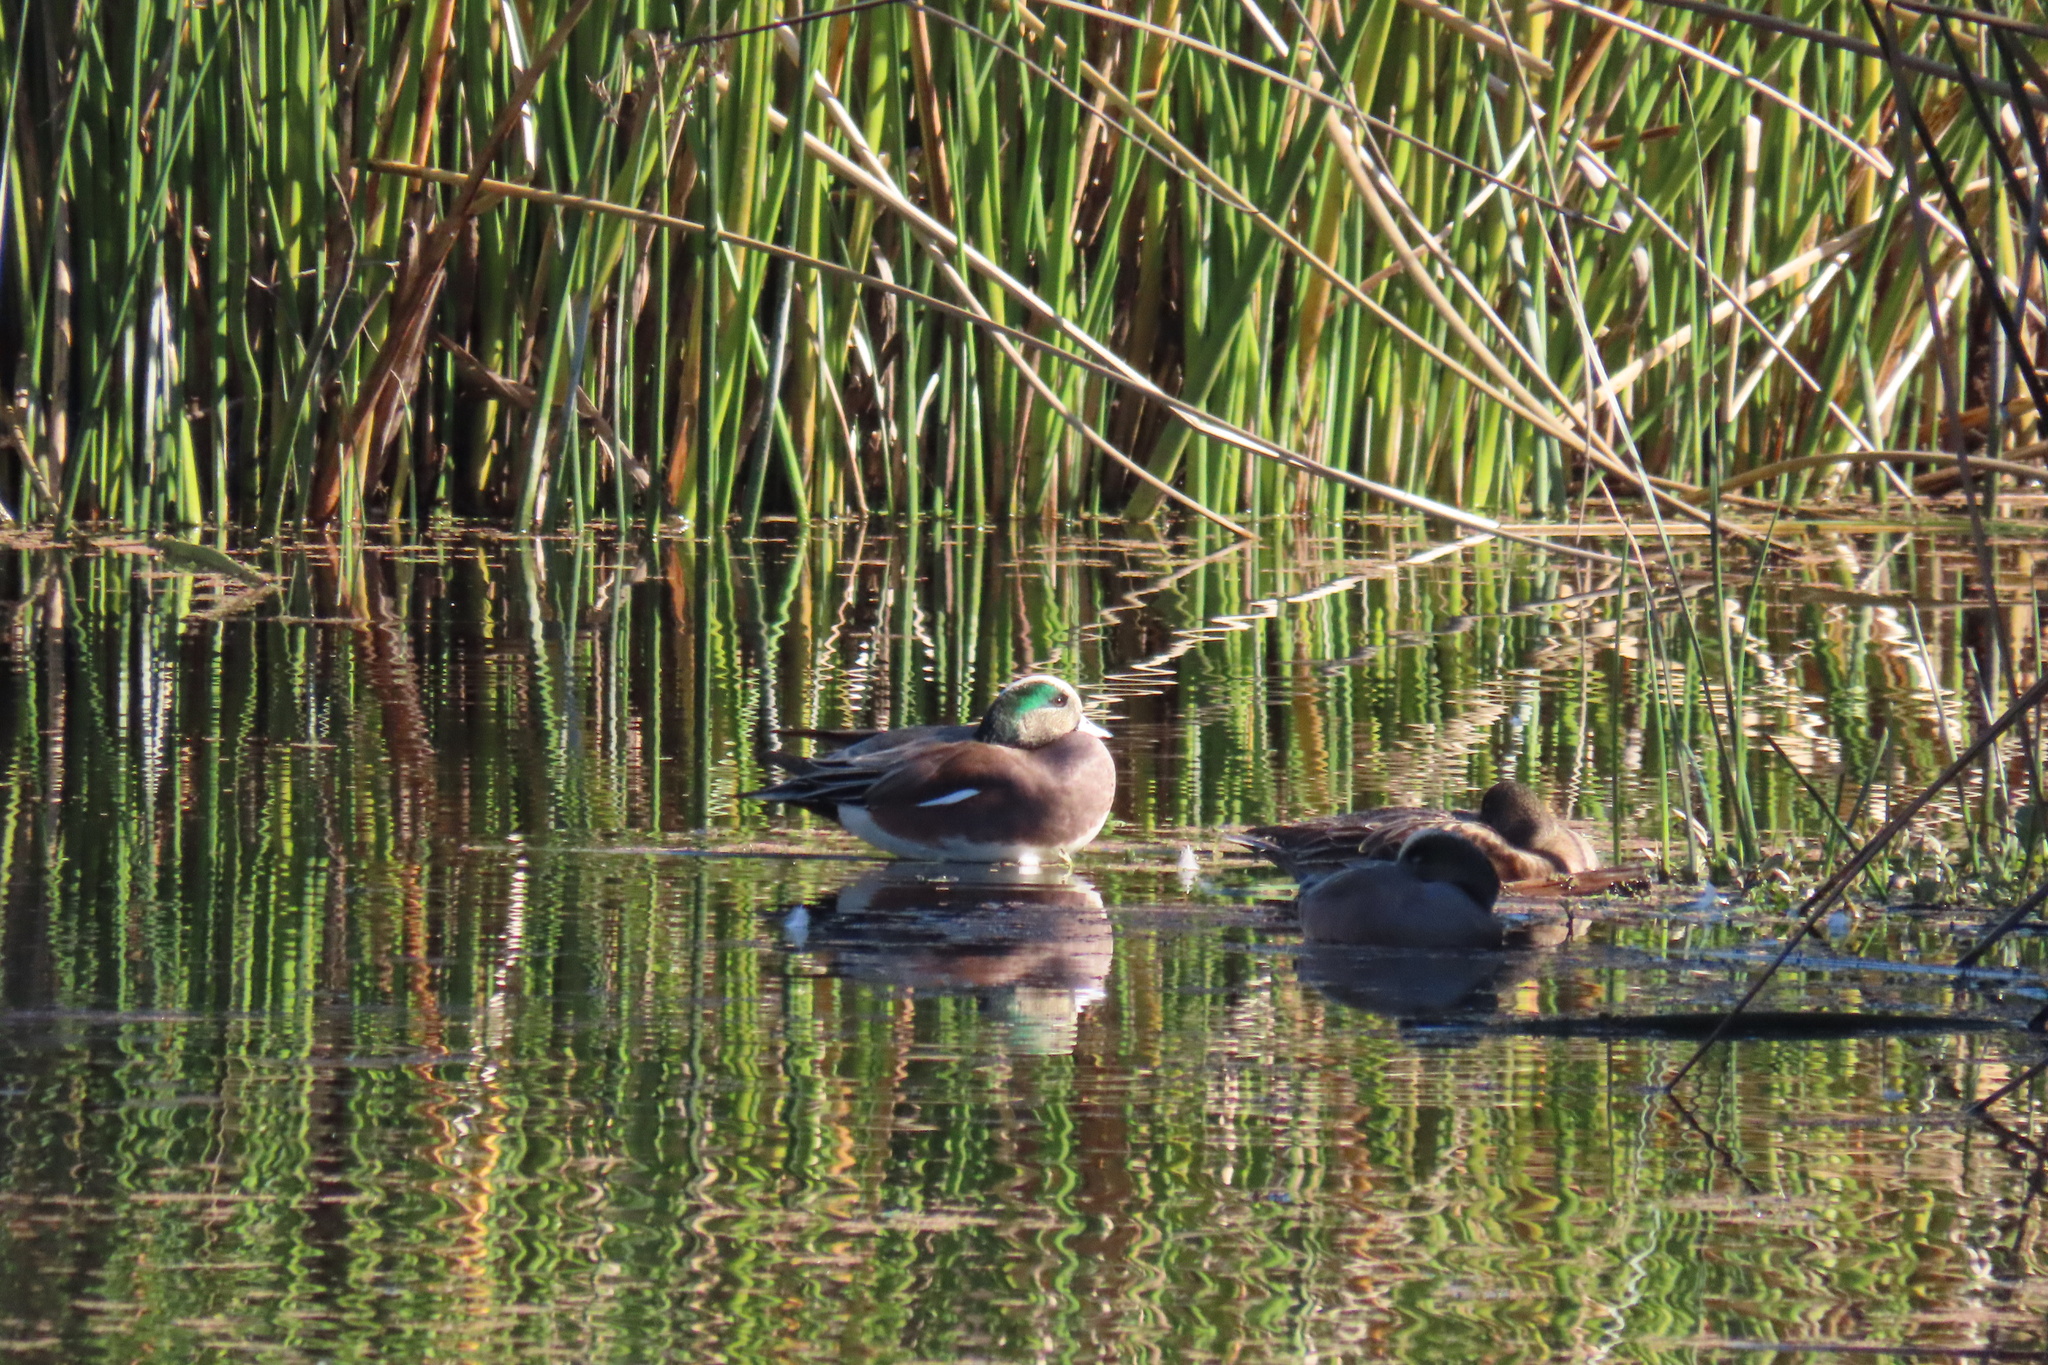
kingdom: Animalia
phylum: Chordata
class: Aves
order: Anseriformes
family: Anatidae
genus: Mareca
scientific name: Mareca americana
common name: American wigeon
